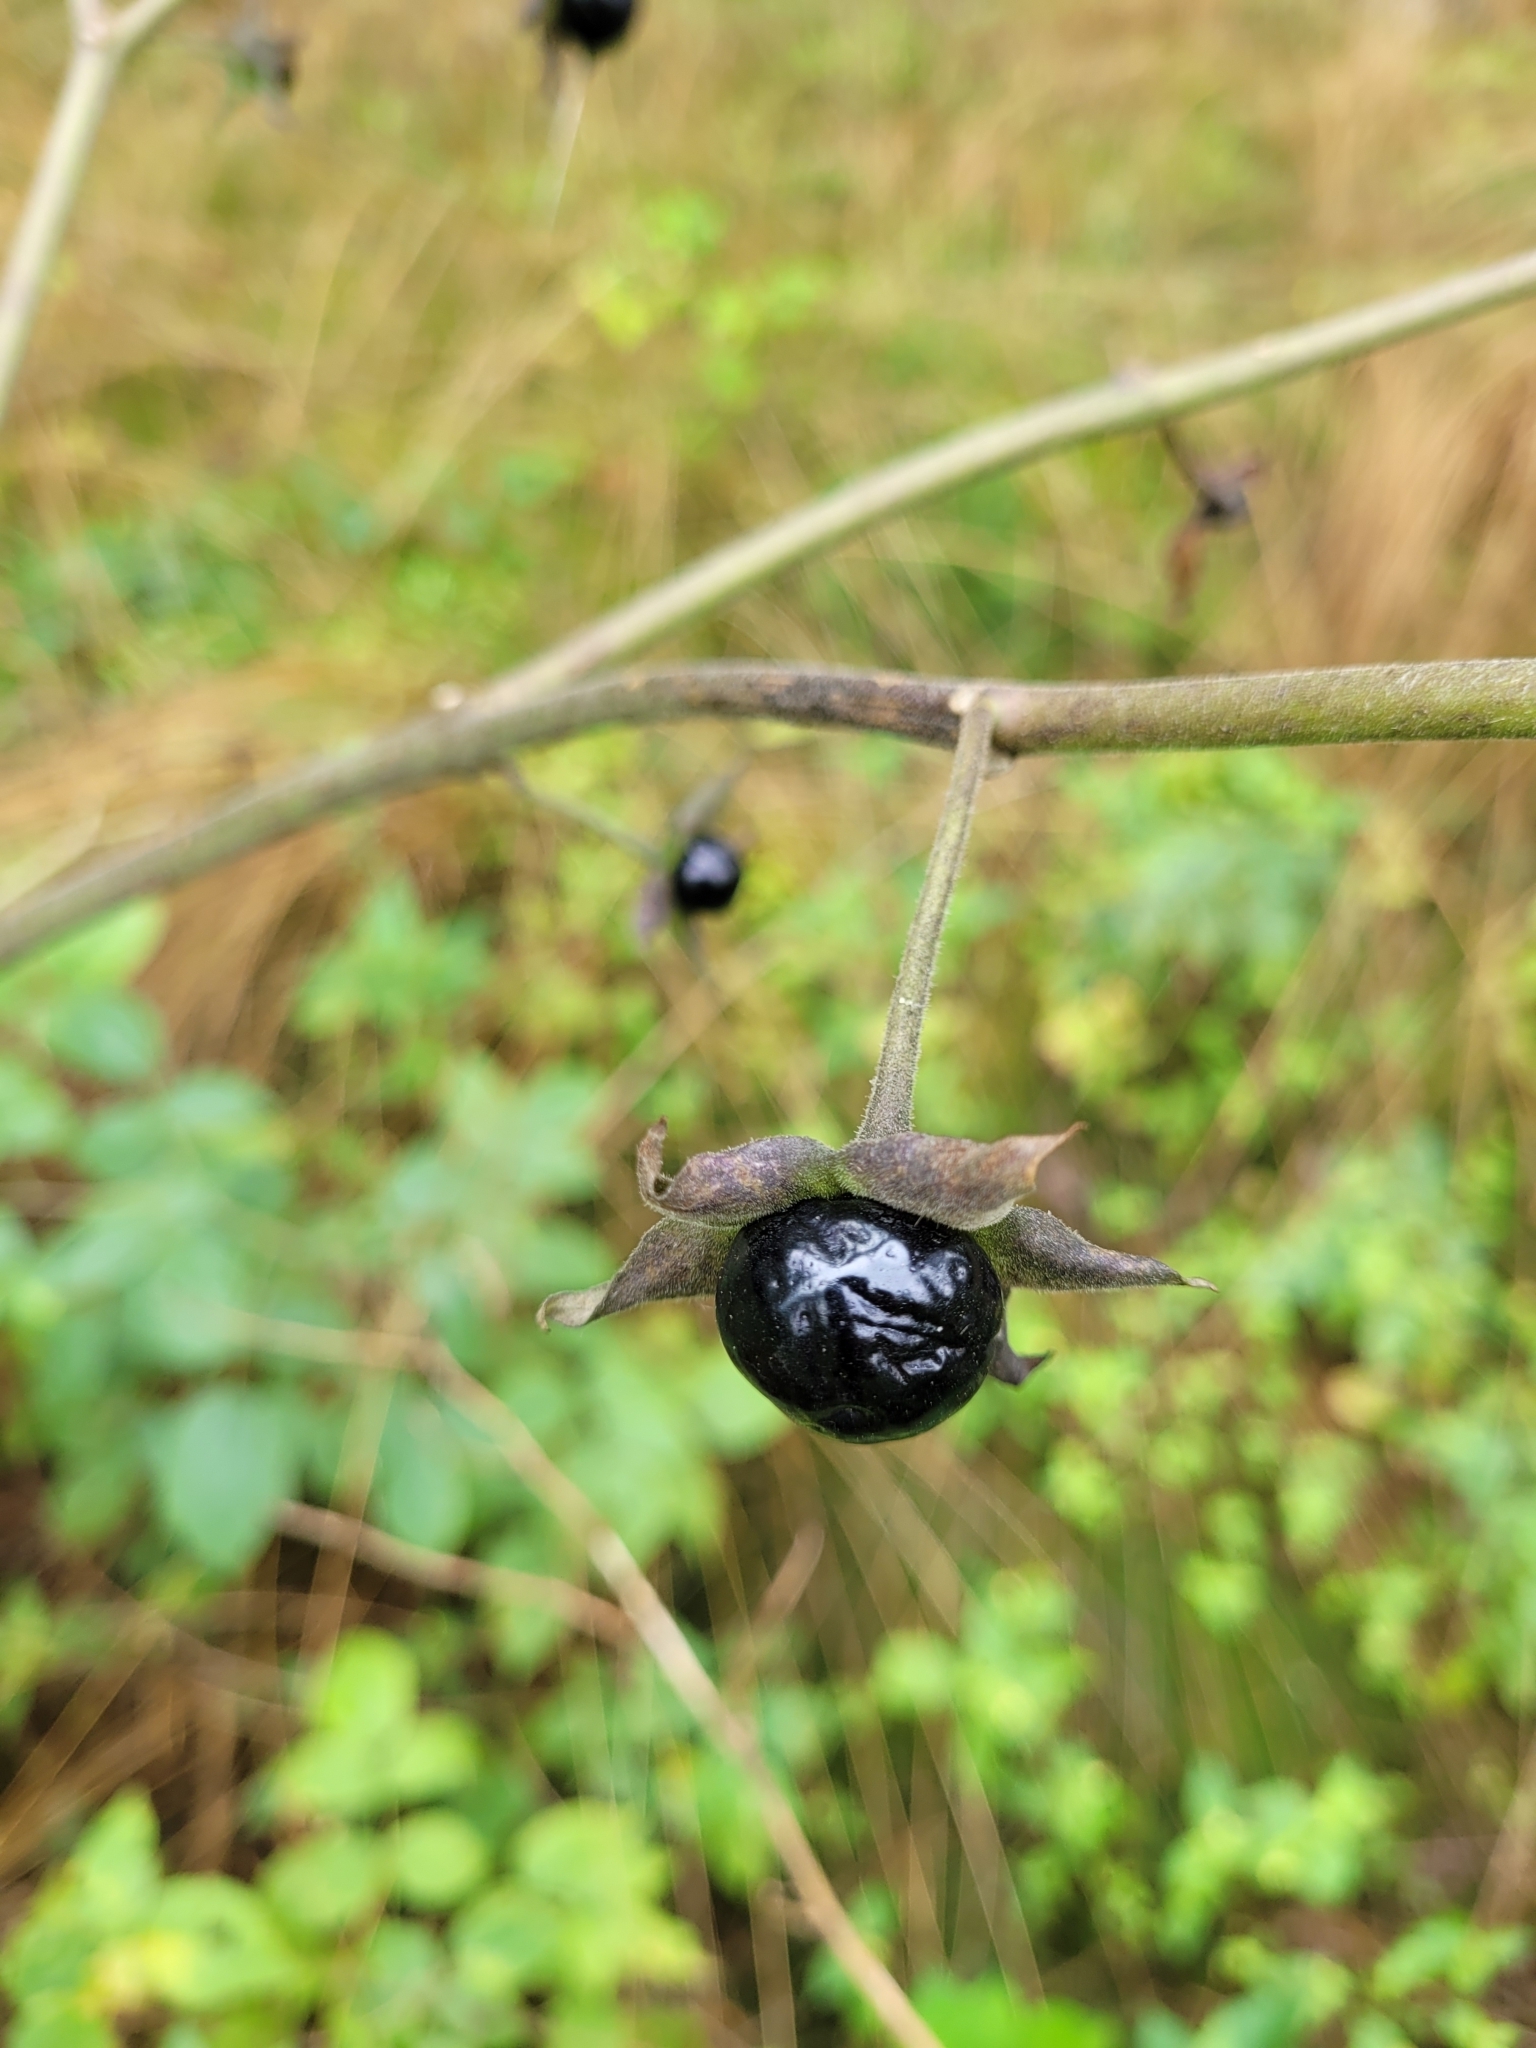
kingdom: Plantae
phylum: Tracheophyta
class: Magnoliopsida
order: Solanales
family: Solanaceae
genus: Atropa
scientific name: Atropa belladonna
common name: Deadly nightshade
